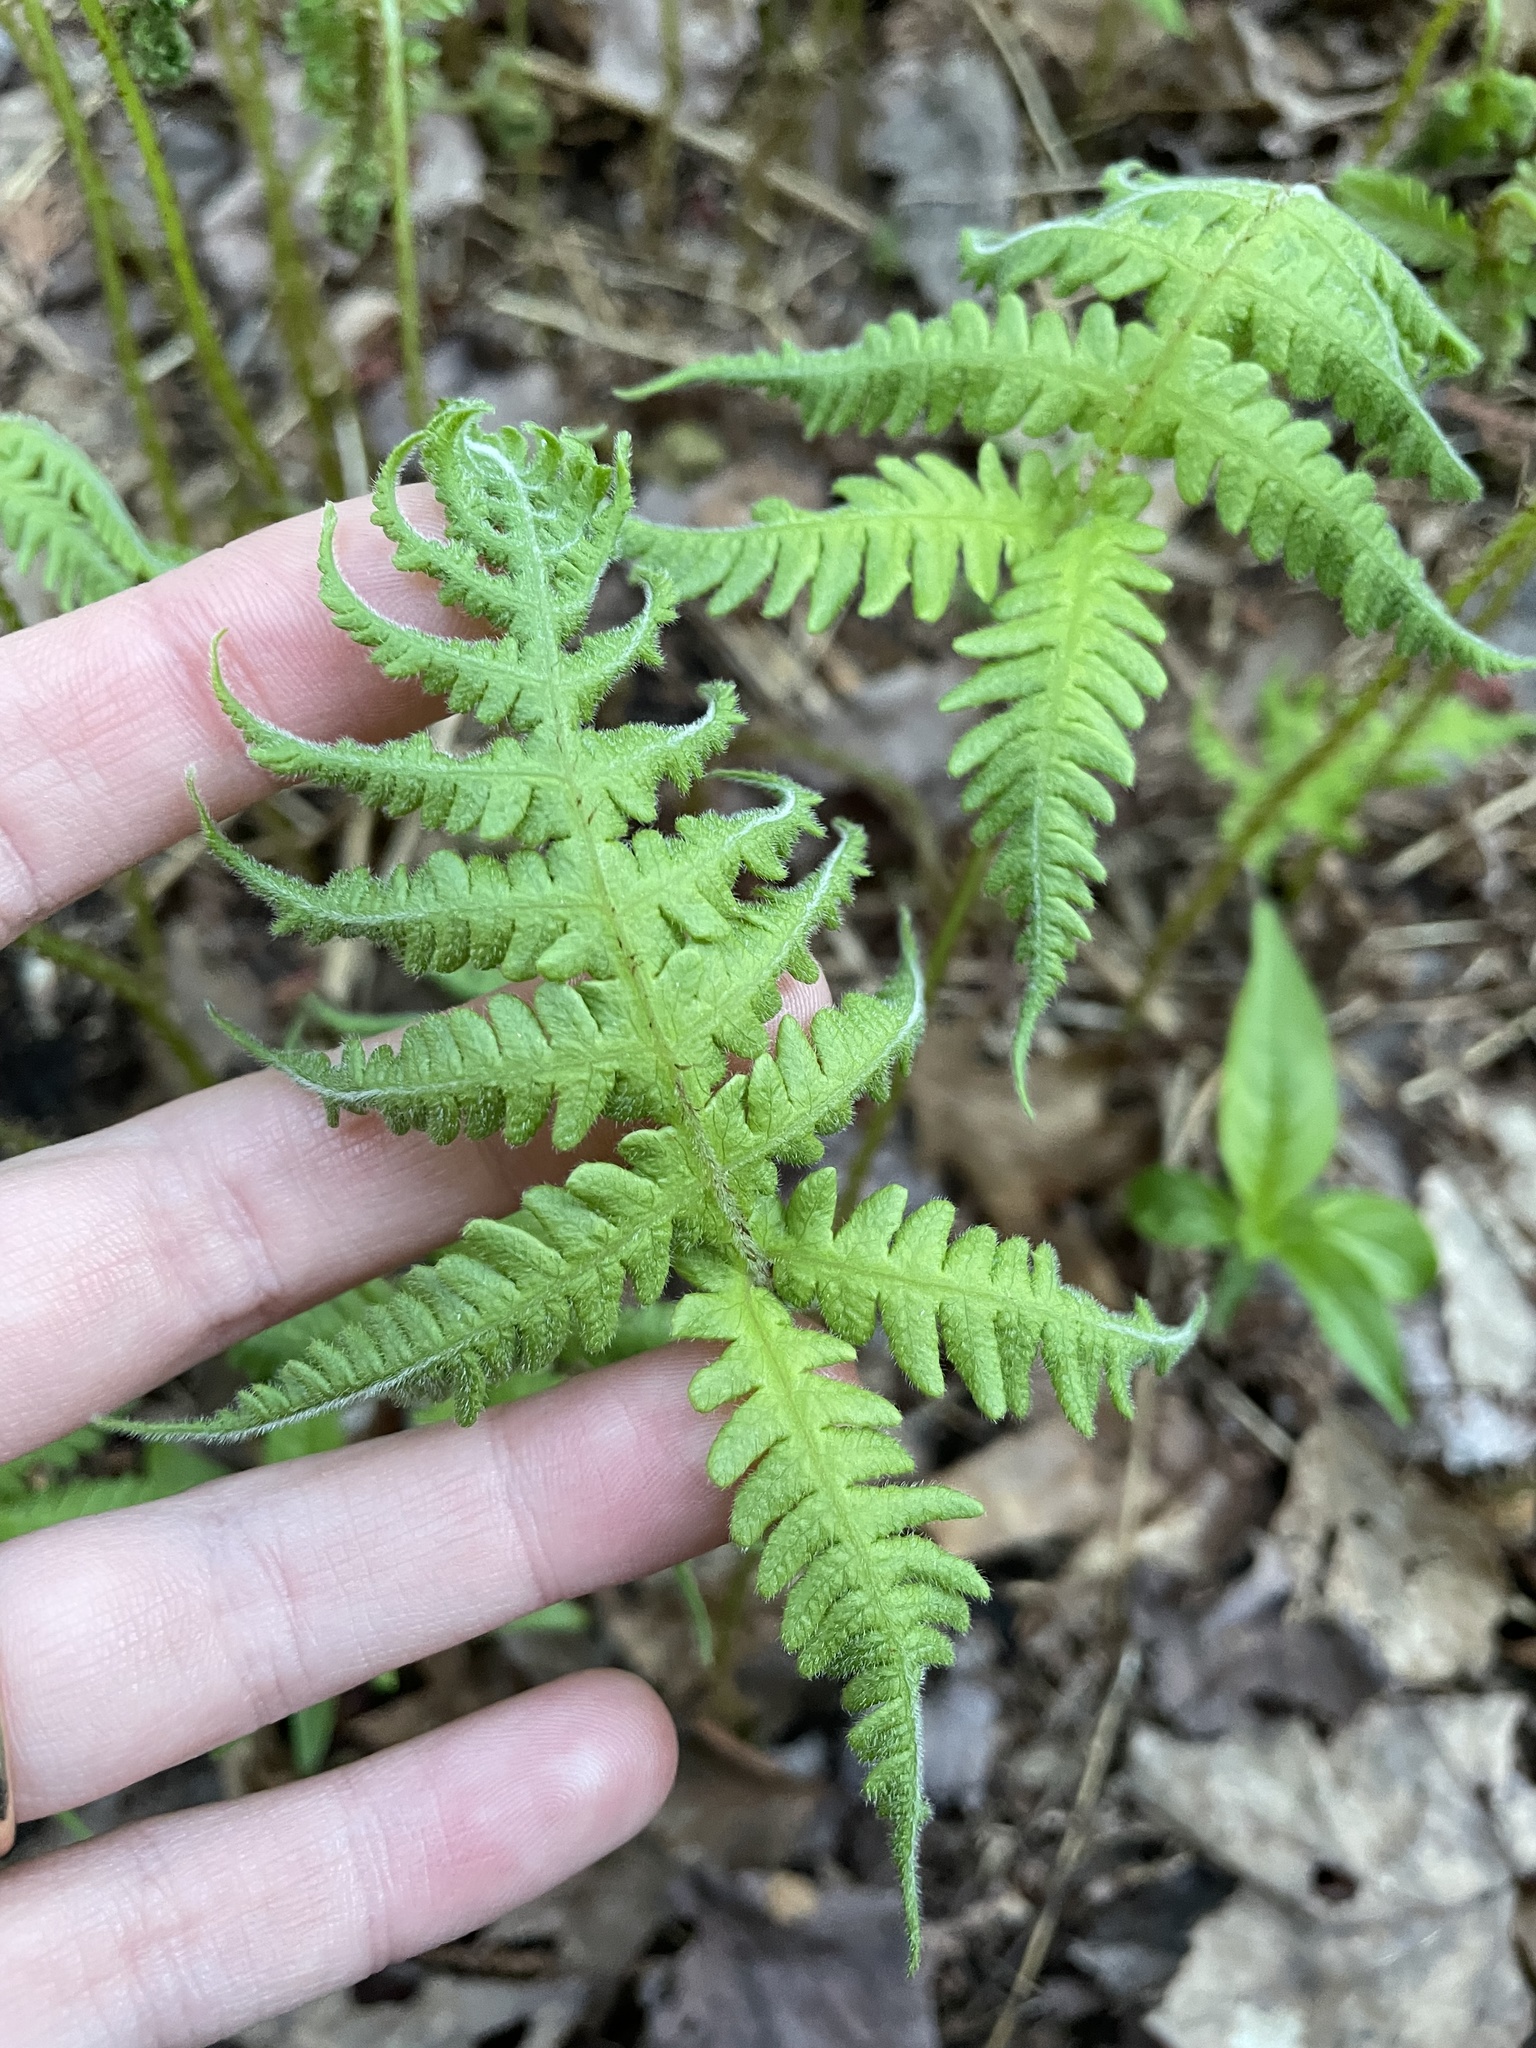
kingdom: Plantae
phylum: Tracheophyta
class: Polypodiopsida
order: Polypodiales
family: Thelypteridaceae
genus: Phegopteris
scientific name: Phegopteris connectilis
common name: Beech fern
